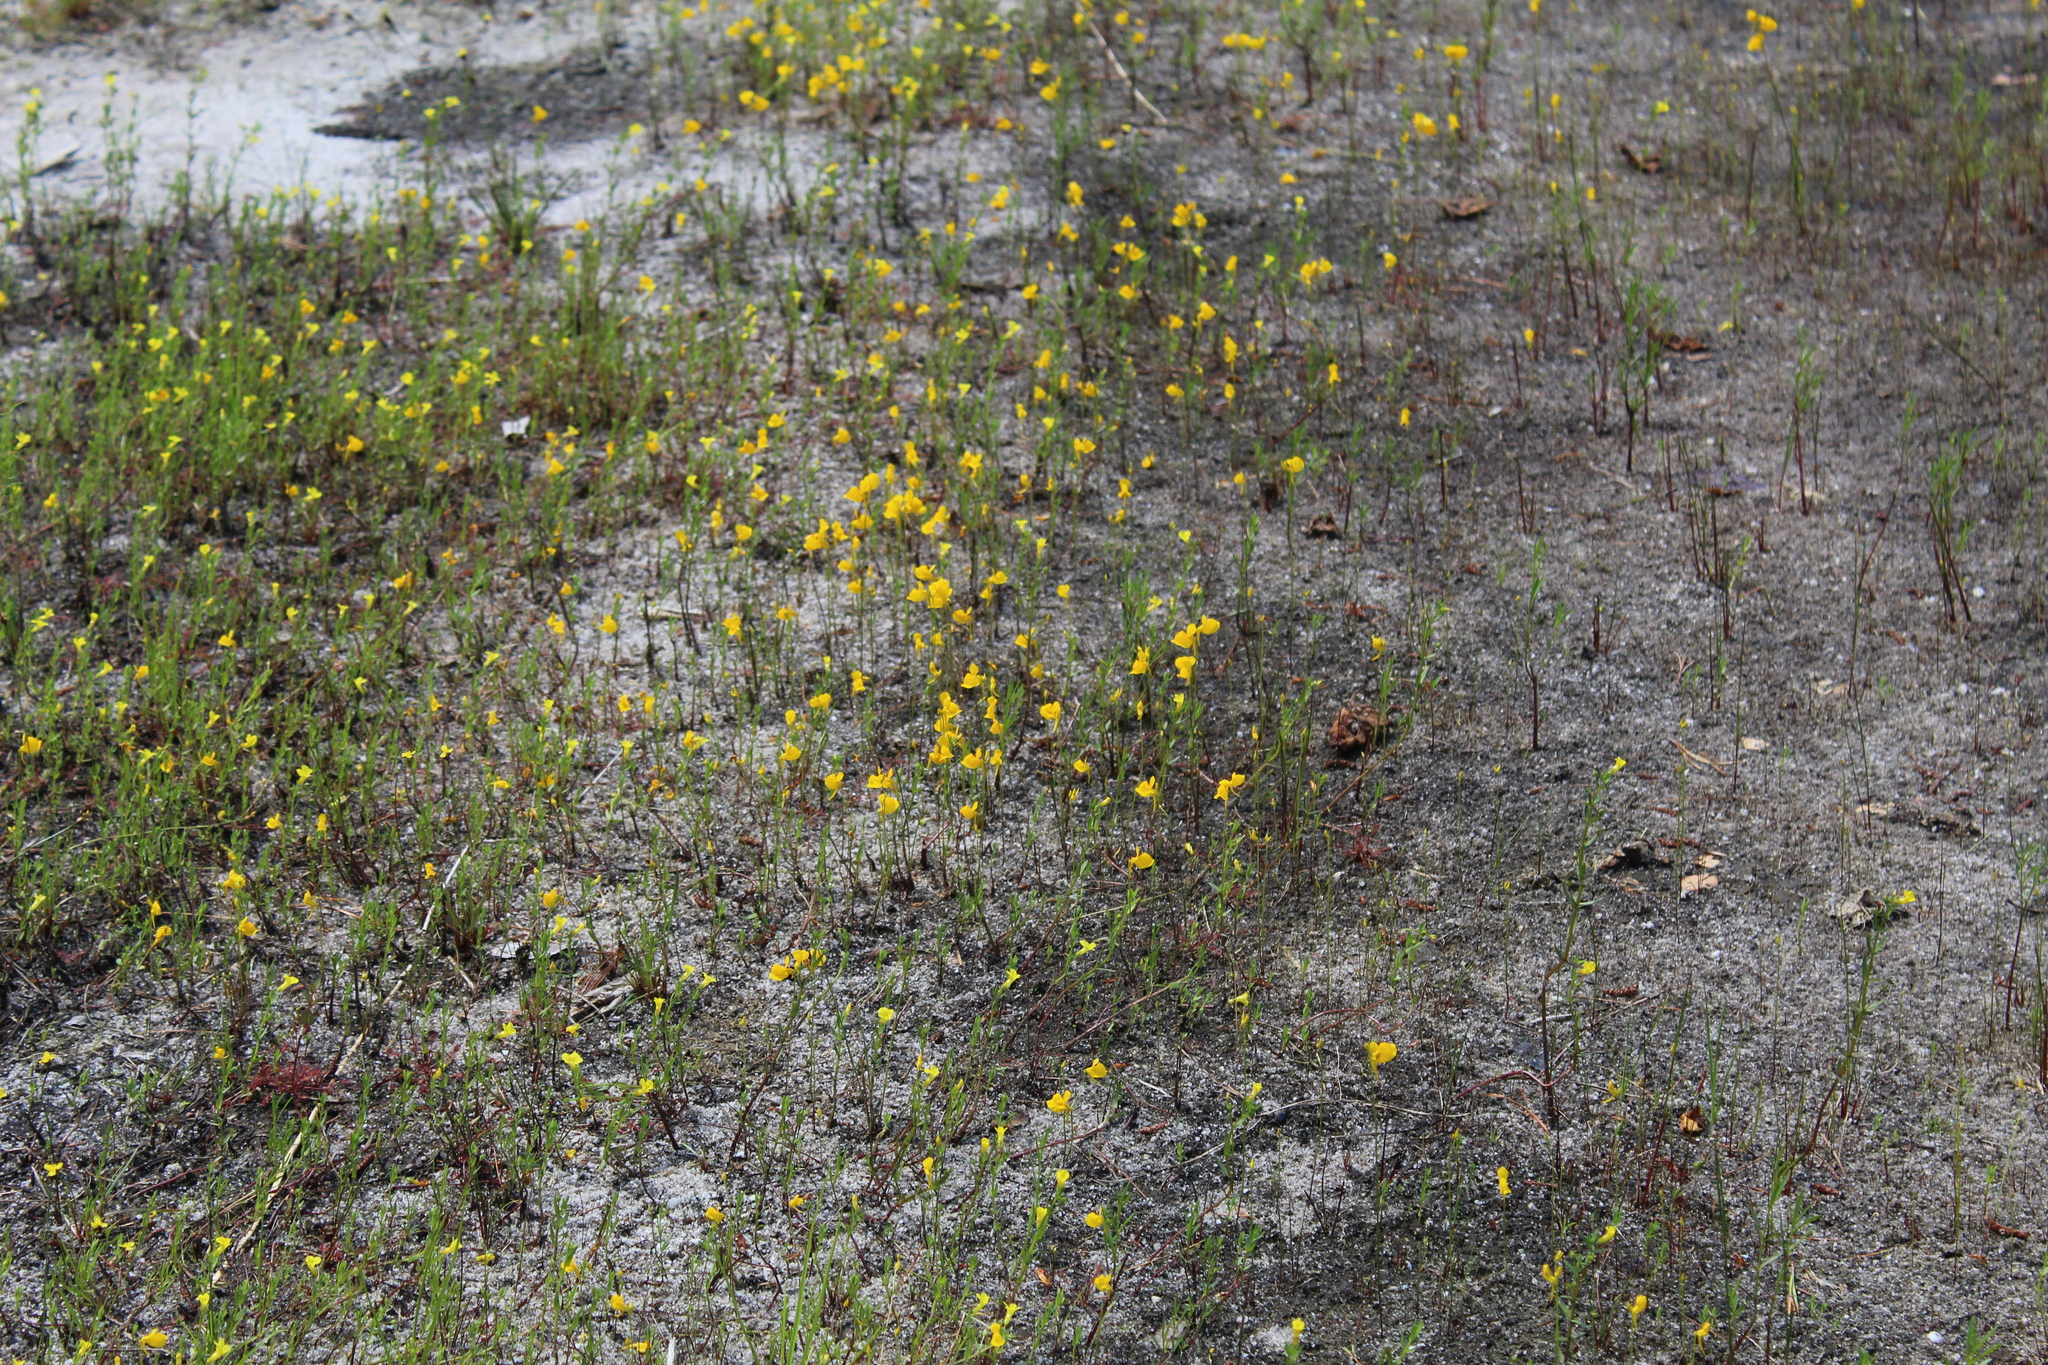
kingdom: Plantae
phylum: Tracheophyta
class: Magnoliopsida
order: Lamiales
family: Lentibulariaceae
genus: Utricularia
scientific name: Utricularia cornuta
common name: Horned bladderwort
